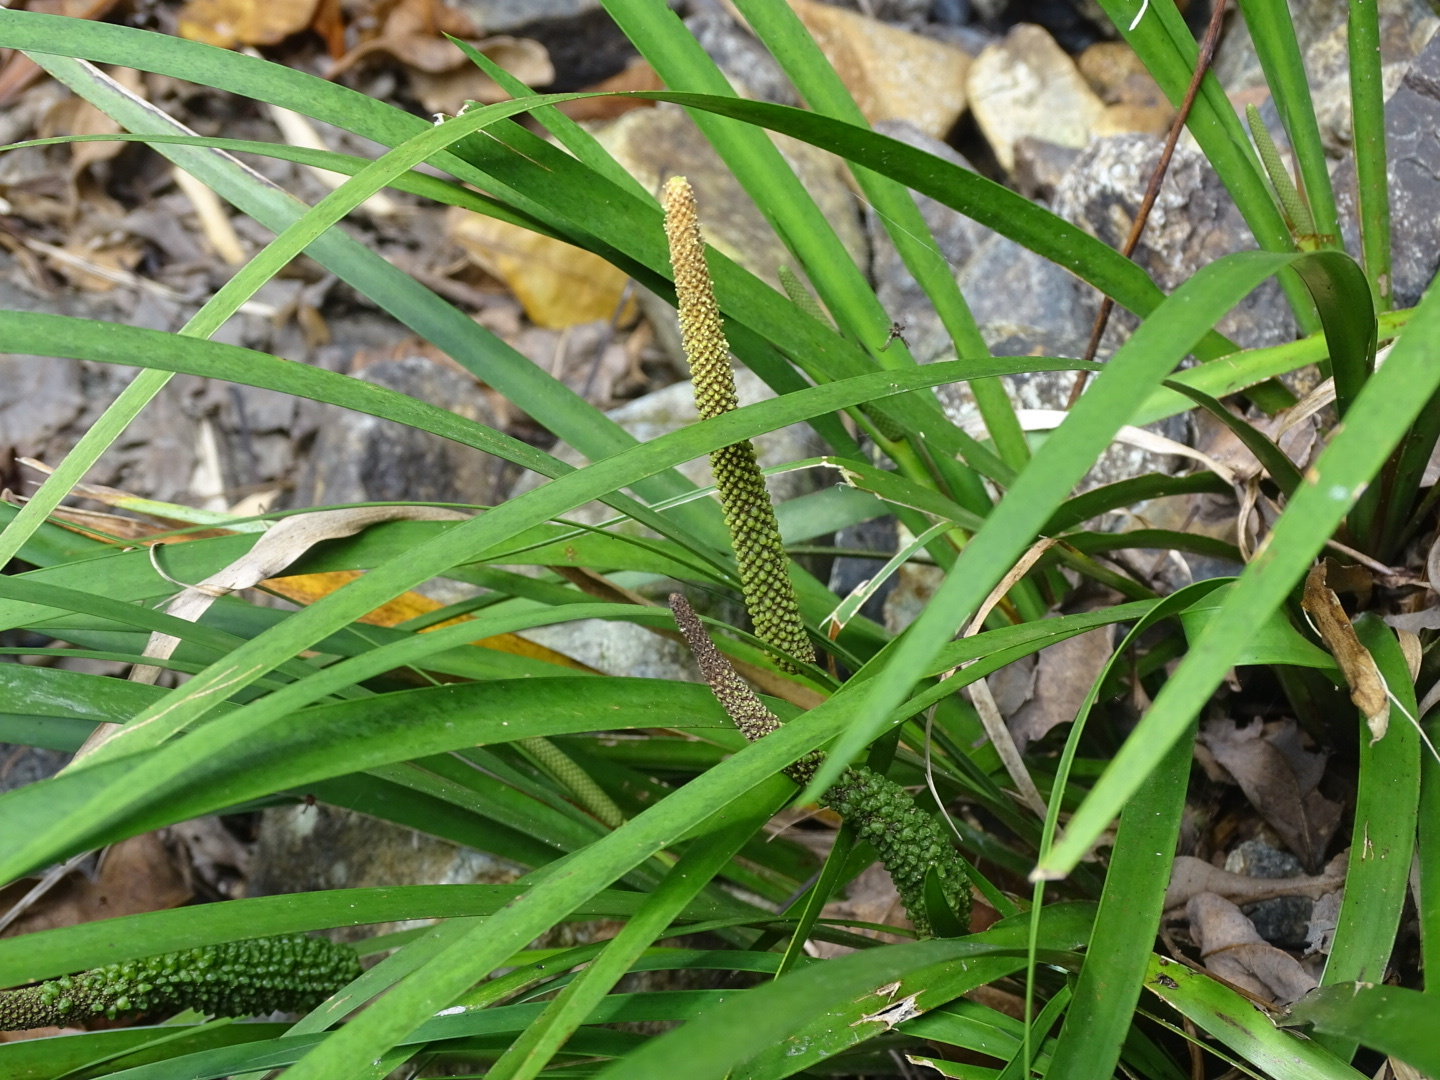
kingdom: Plantae
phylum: Tracheophyta
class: Liliopsida
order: Acorales
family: Acoraceae
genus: Acorus
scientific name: Acorus gramineus
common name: Slender sweet-flag
